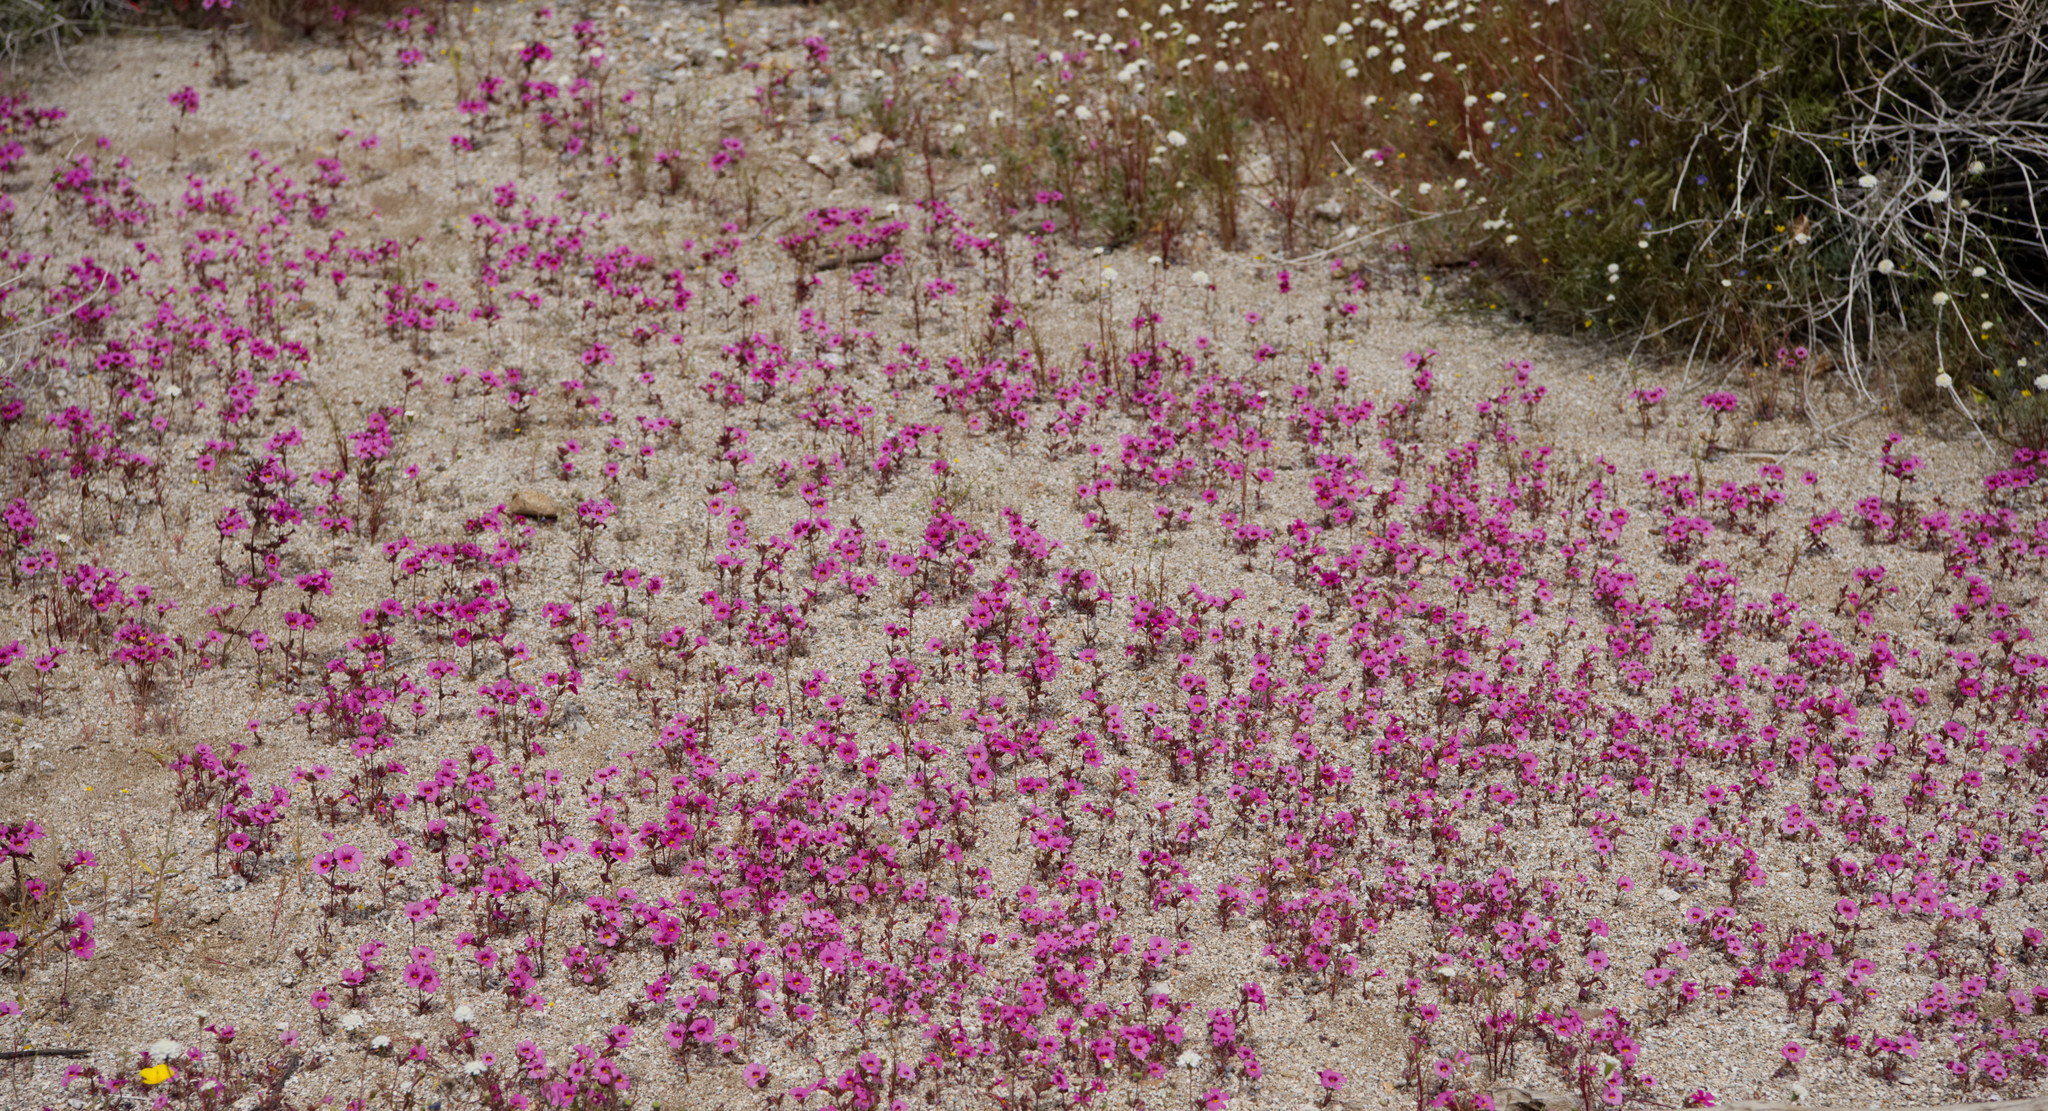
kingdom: Plantae
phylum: Tracheophyta
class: Magnoliopsida
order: Lamiales
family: Phrymaceae
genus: Diplacus
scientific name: Diplacus bigelovii
